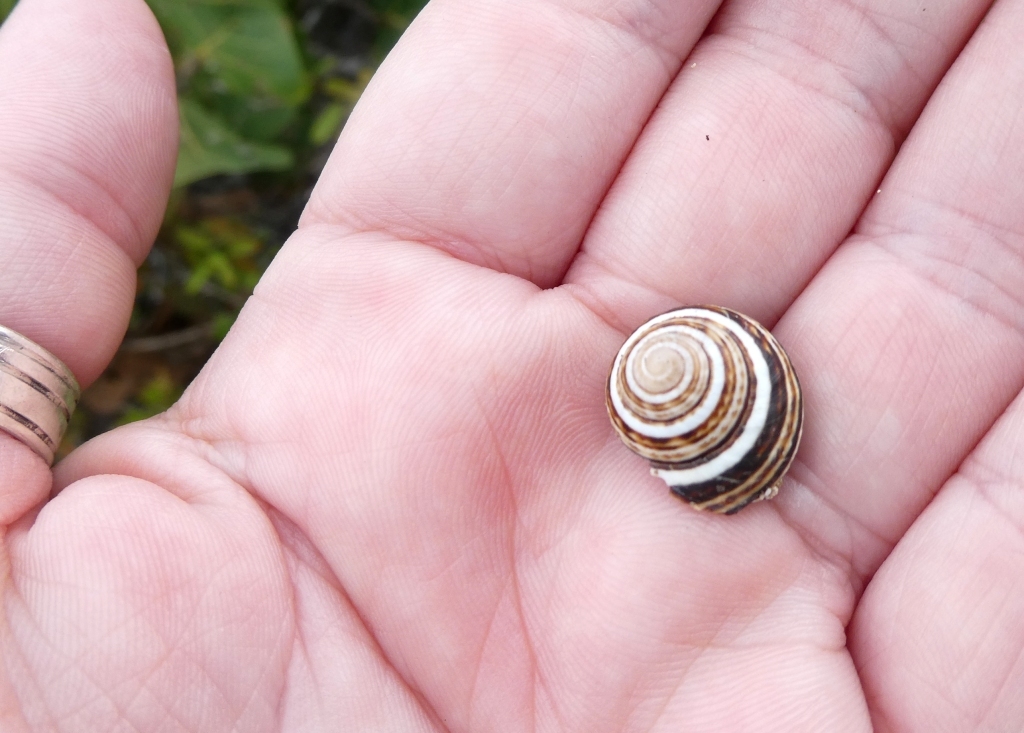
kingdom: Animalia
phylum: Mollusca
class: Gastropoda
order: Stylommatophora
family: Cepolidae
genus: Hemitrochus
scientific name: Hemitrochus varians
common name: Caribbean land snail
